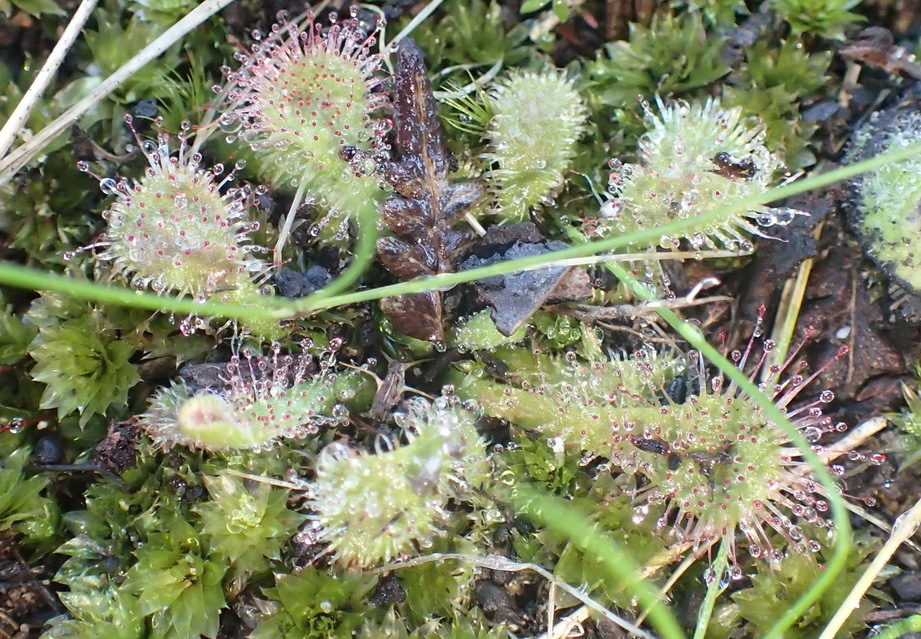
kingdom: Plantae
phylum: Tracheophyta
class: Magnoliopsida
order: Caryophyllales
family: Droseraceae
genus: Drosera
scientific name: Drosera natalensis
